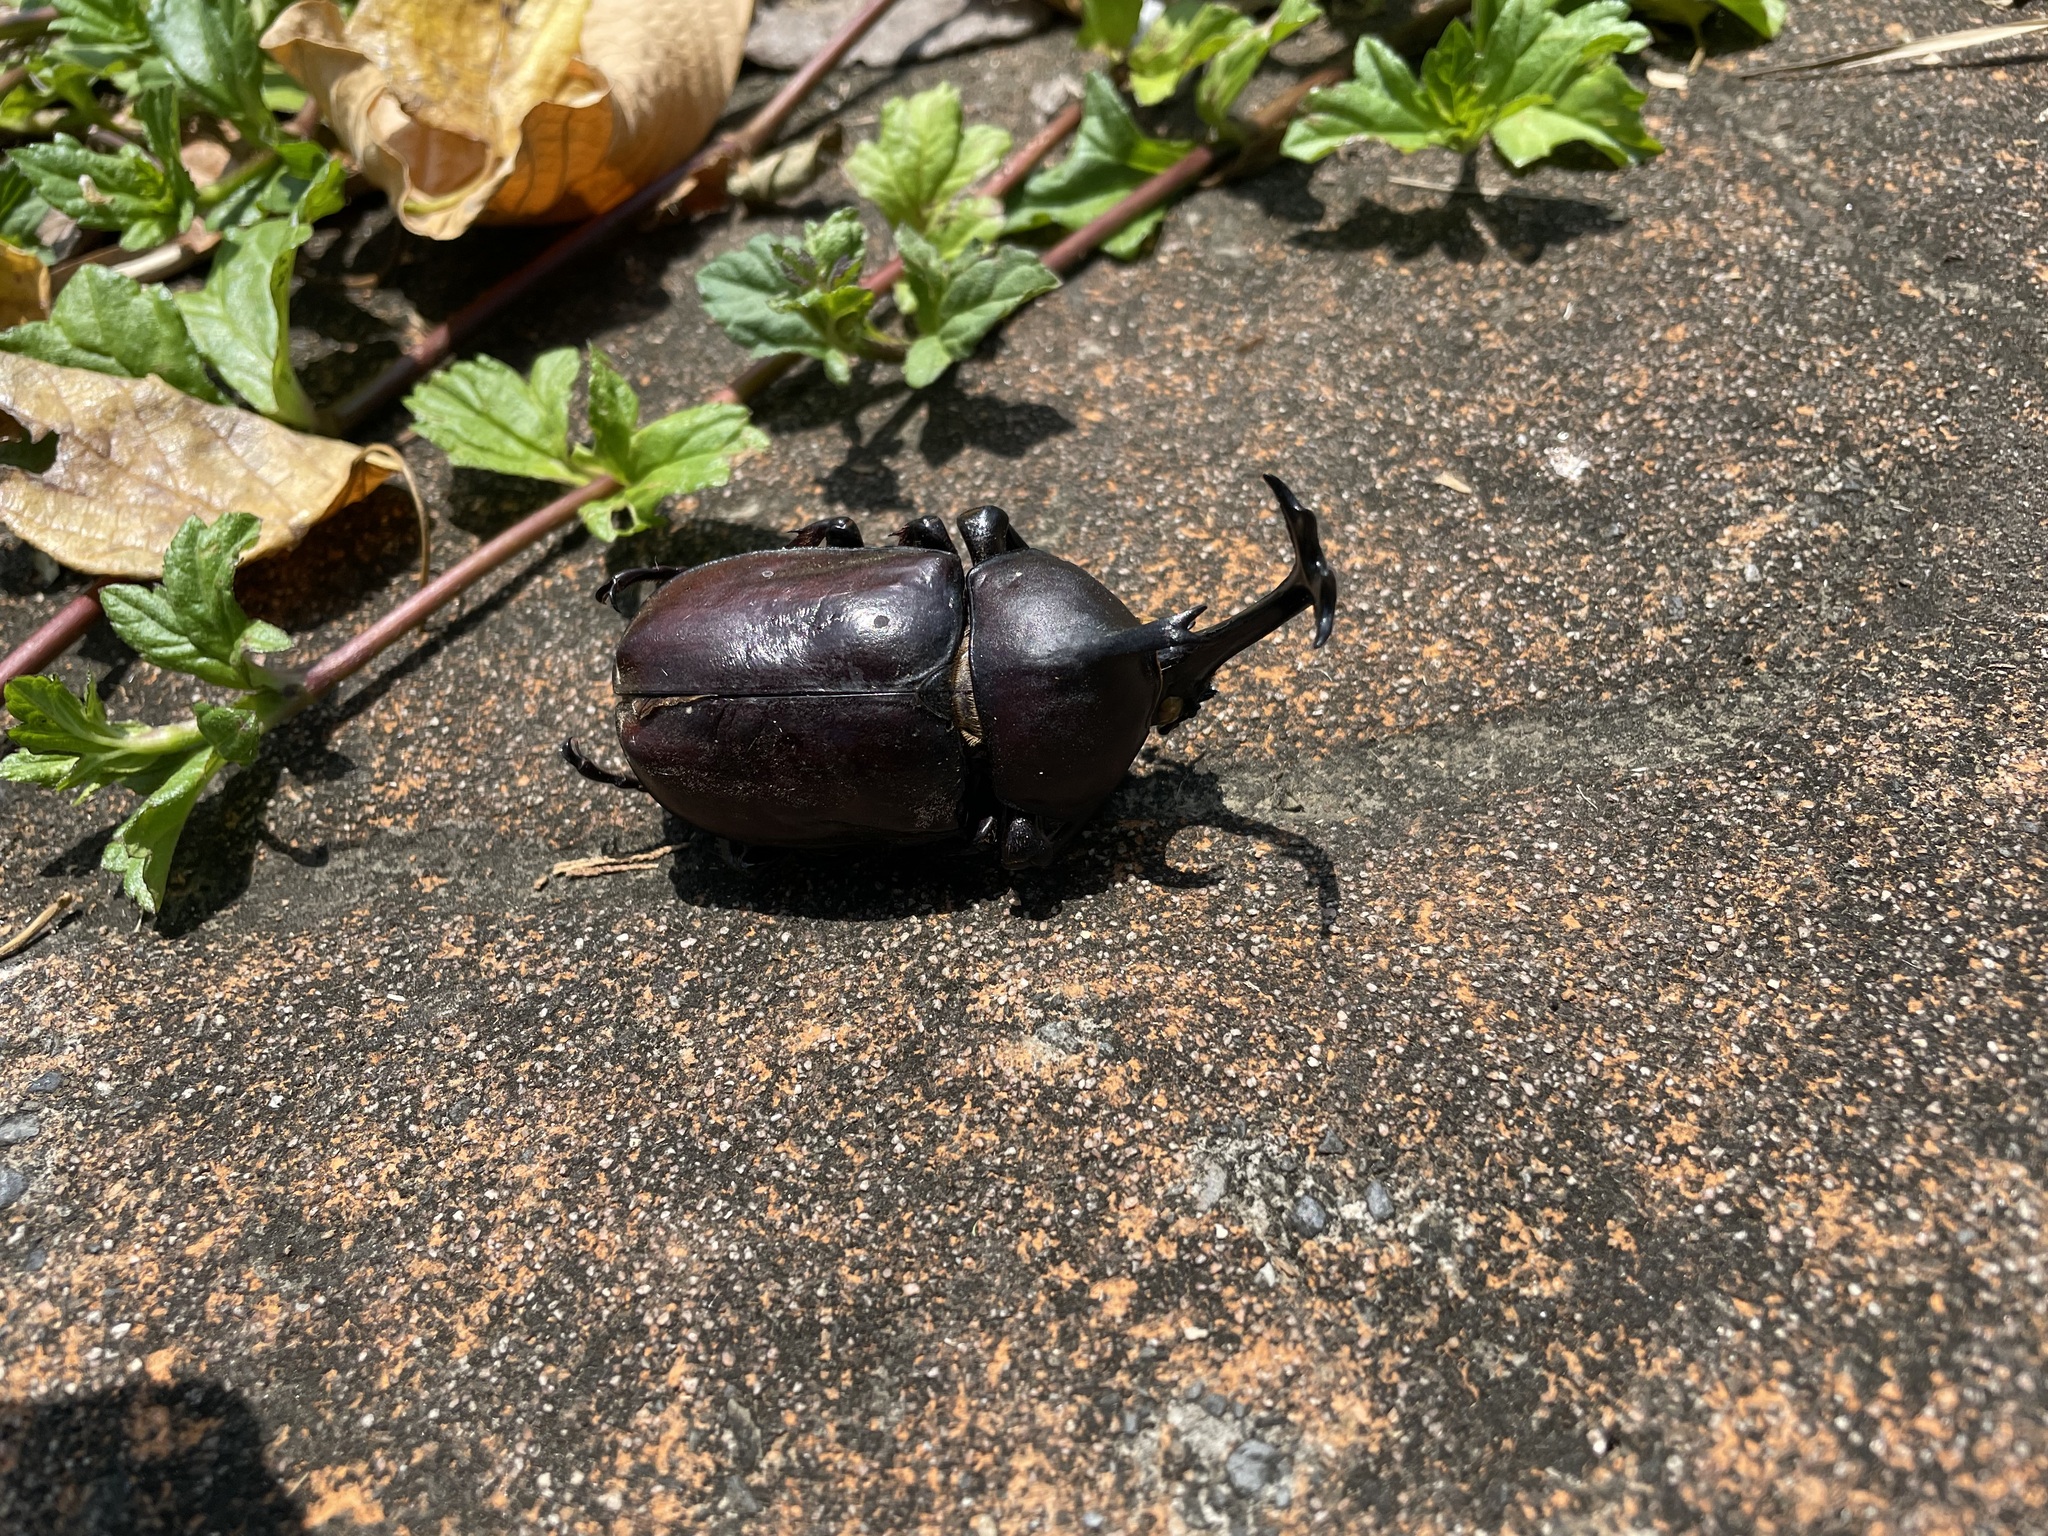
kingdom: Animalia
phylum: Arthropoda
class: Insecta
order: Coleoptera
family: Scarabaeidae
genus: Trypoxylus
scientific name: Trypoxylus dichotomus
